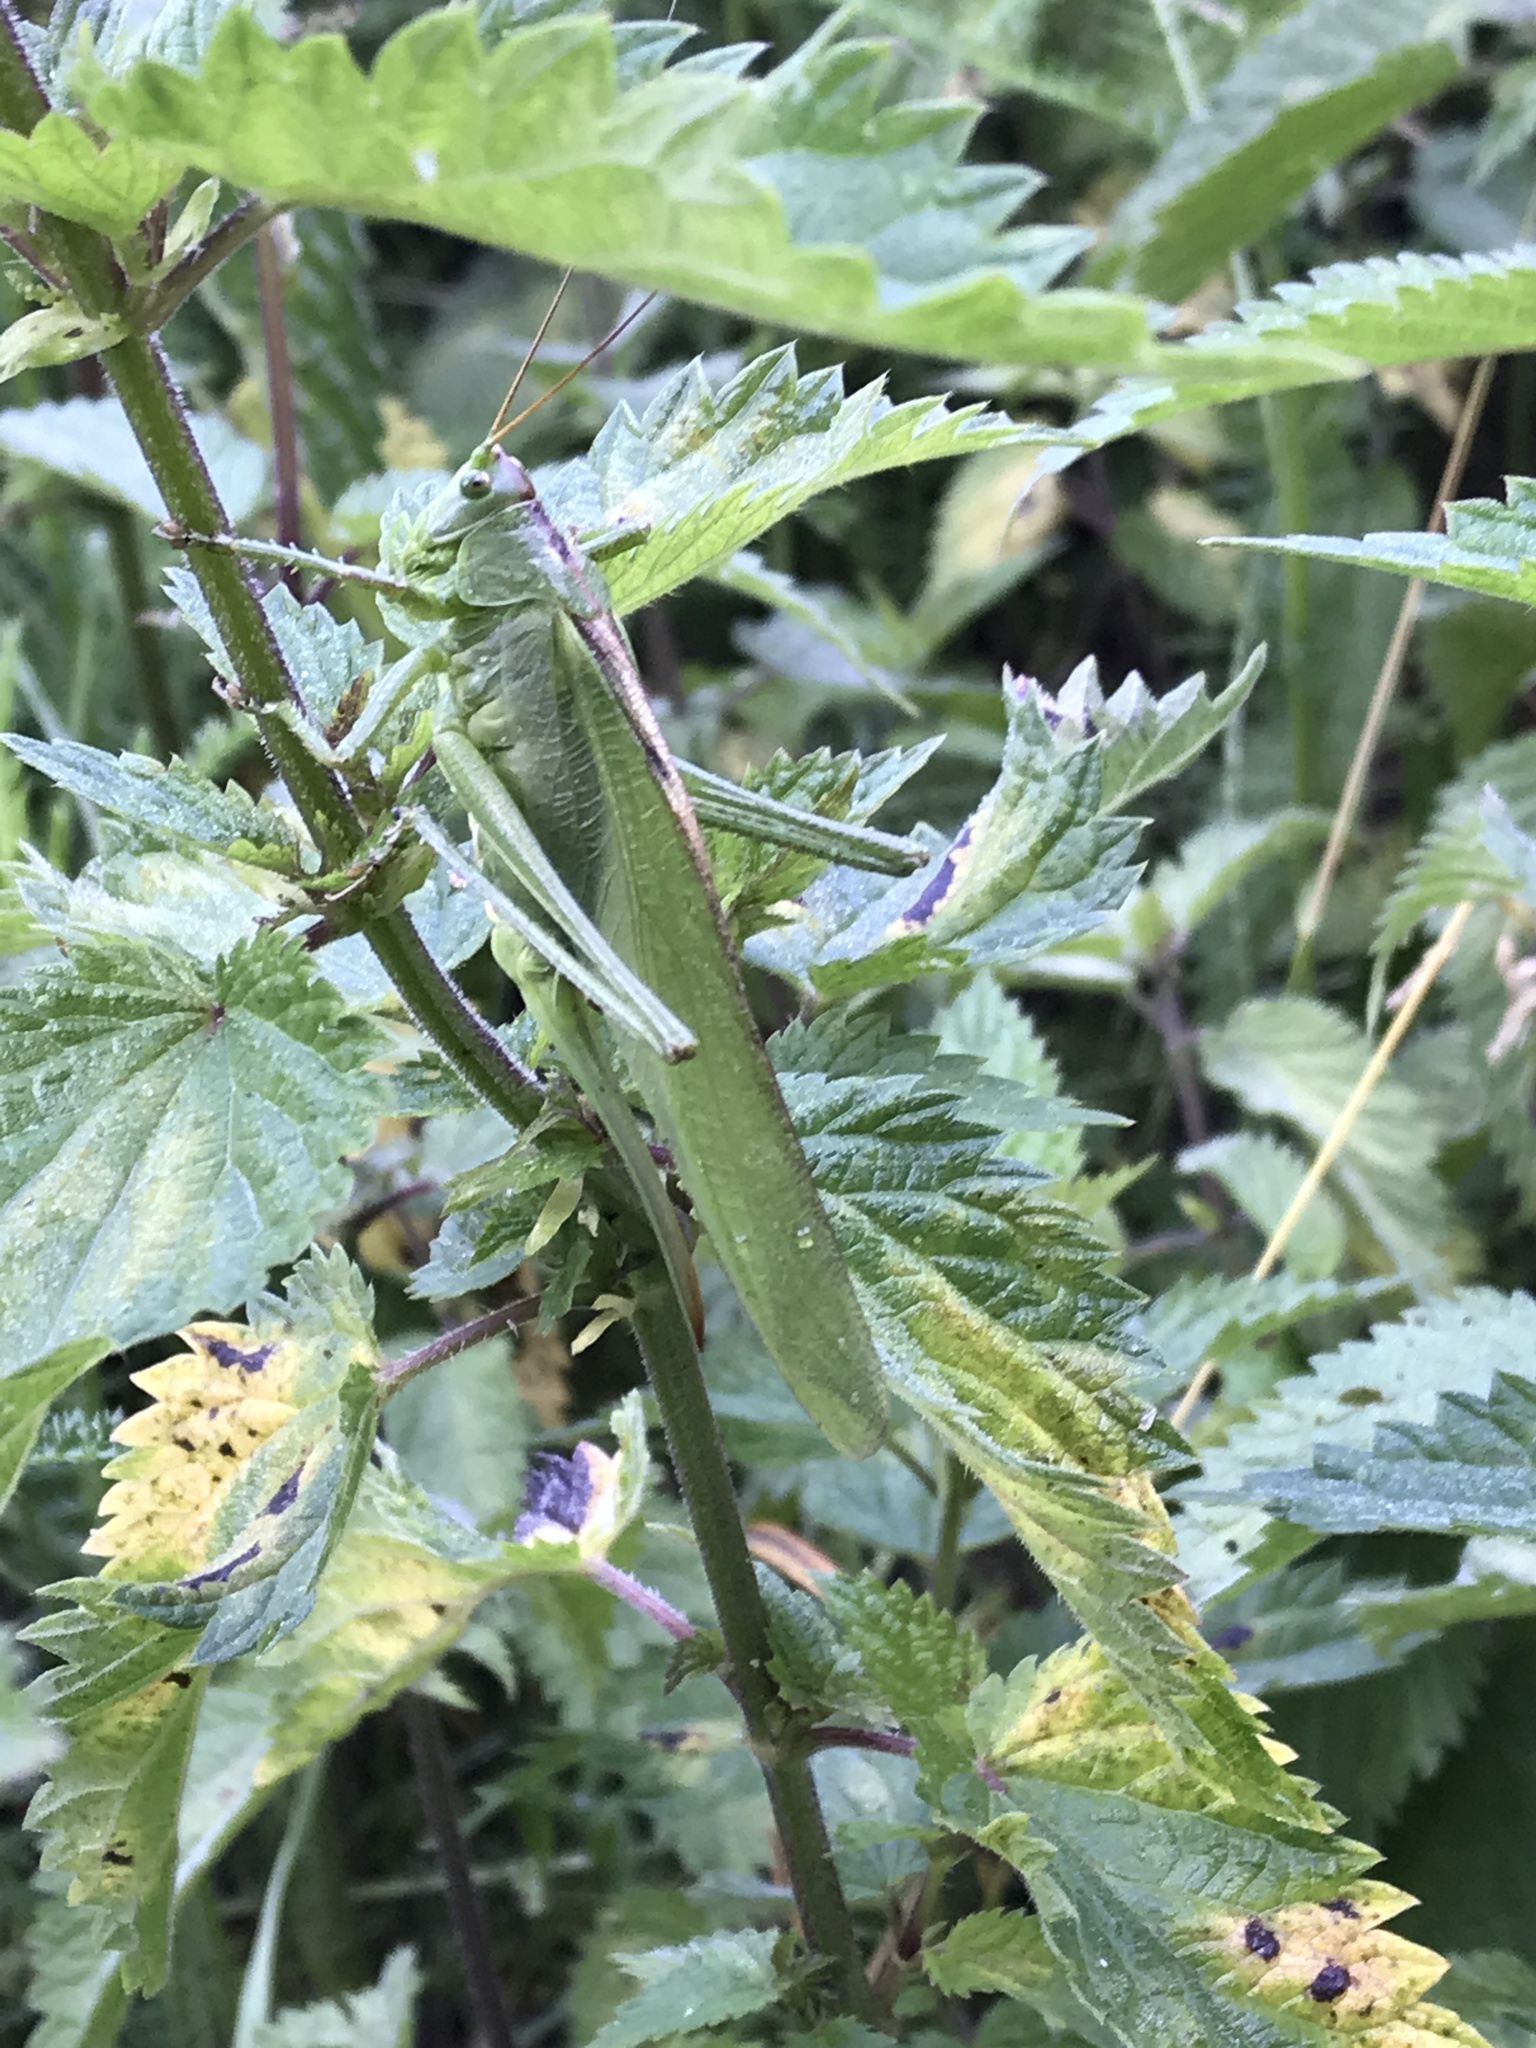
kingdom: Animalia
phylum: Arthropoda
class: Insecta
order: Orthoptera
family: Tettigoniidae
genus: Tettigonia
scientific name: Tettigonia viridissima
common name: Great green bush-cricket
